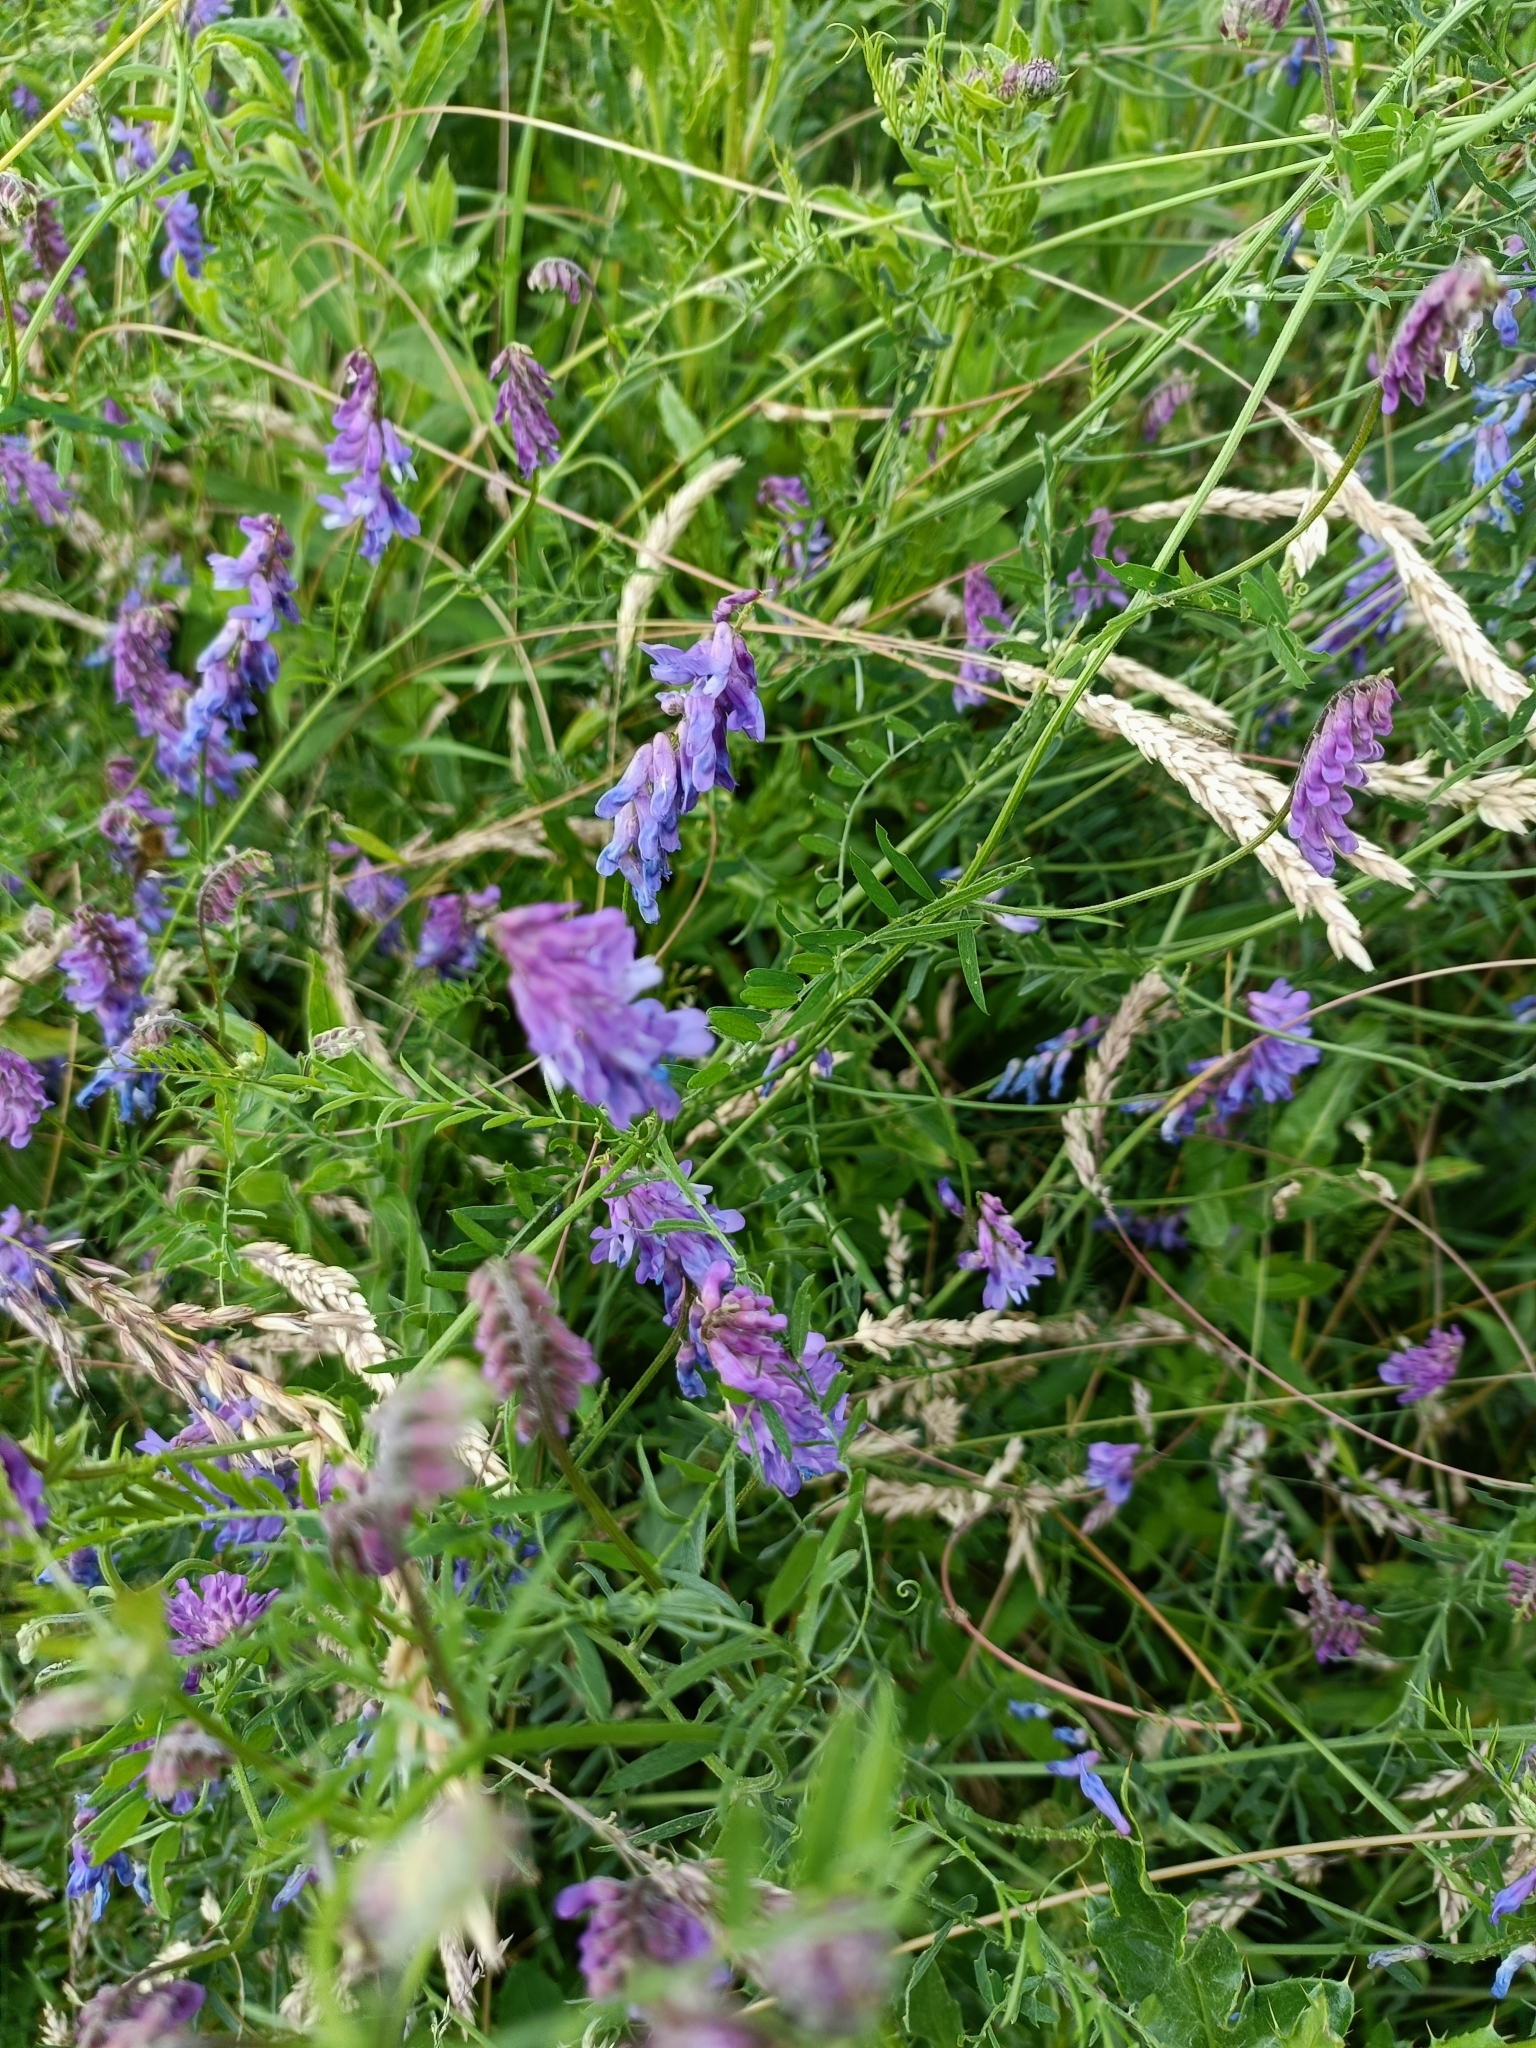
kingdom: Plantae
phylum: Tracheophyta
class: Magnoliopsida
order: Fabales
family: Fabaceae
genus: Vicia
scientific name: Vicia cracca
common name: Bird vetch
